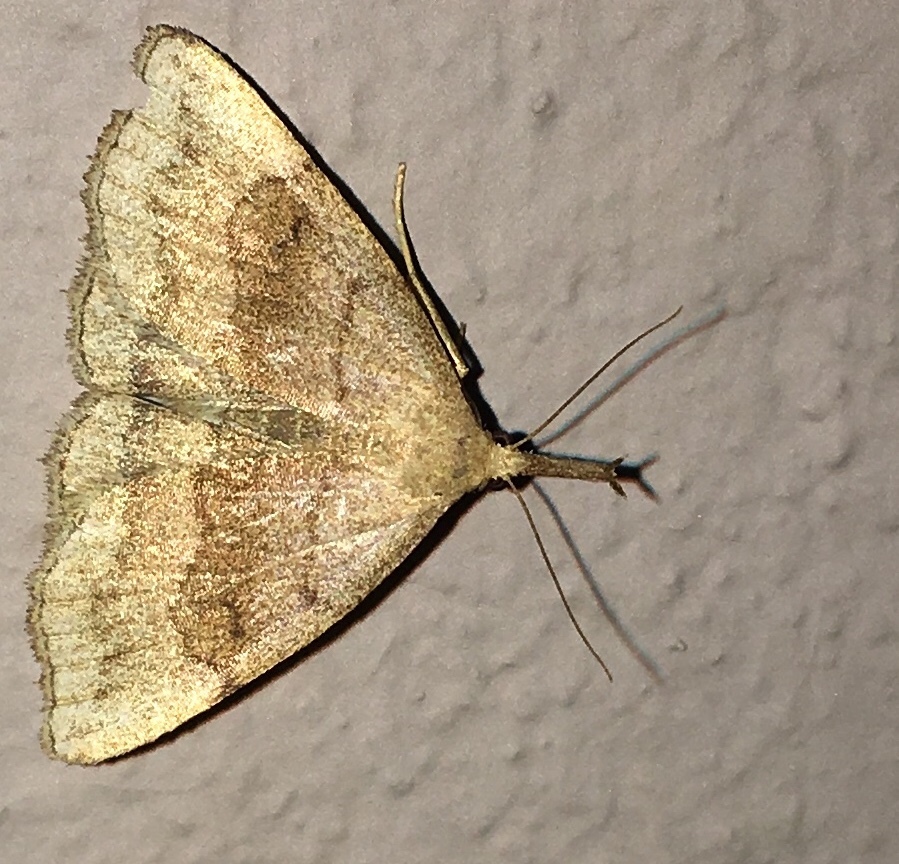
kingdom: Animalia
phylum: Arthropoda
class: Insecta
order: Lepidoptera
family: Erebidae
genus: Phalaenostola
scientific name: Phalaenostola metonalis
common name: Pale phalaenostola moth
